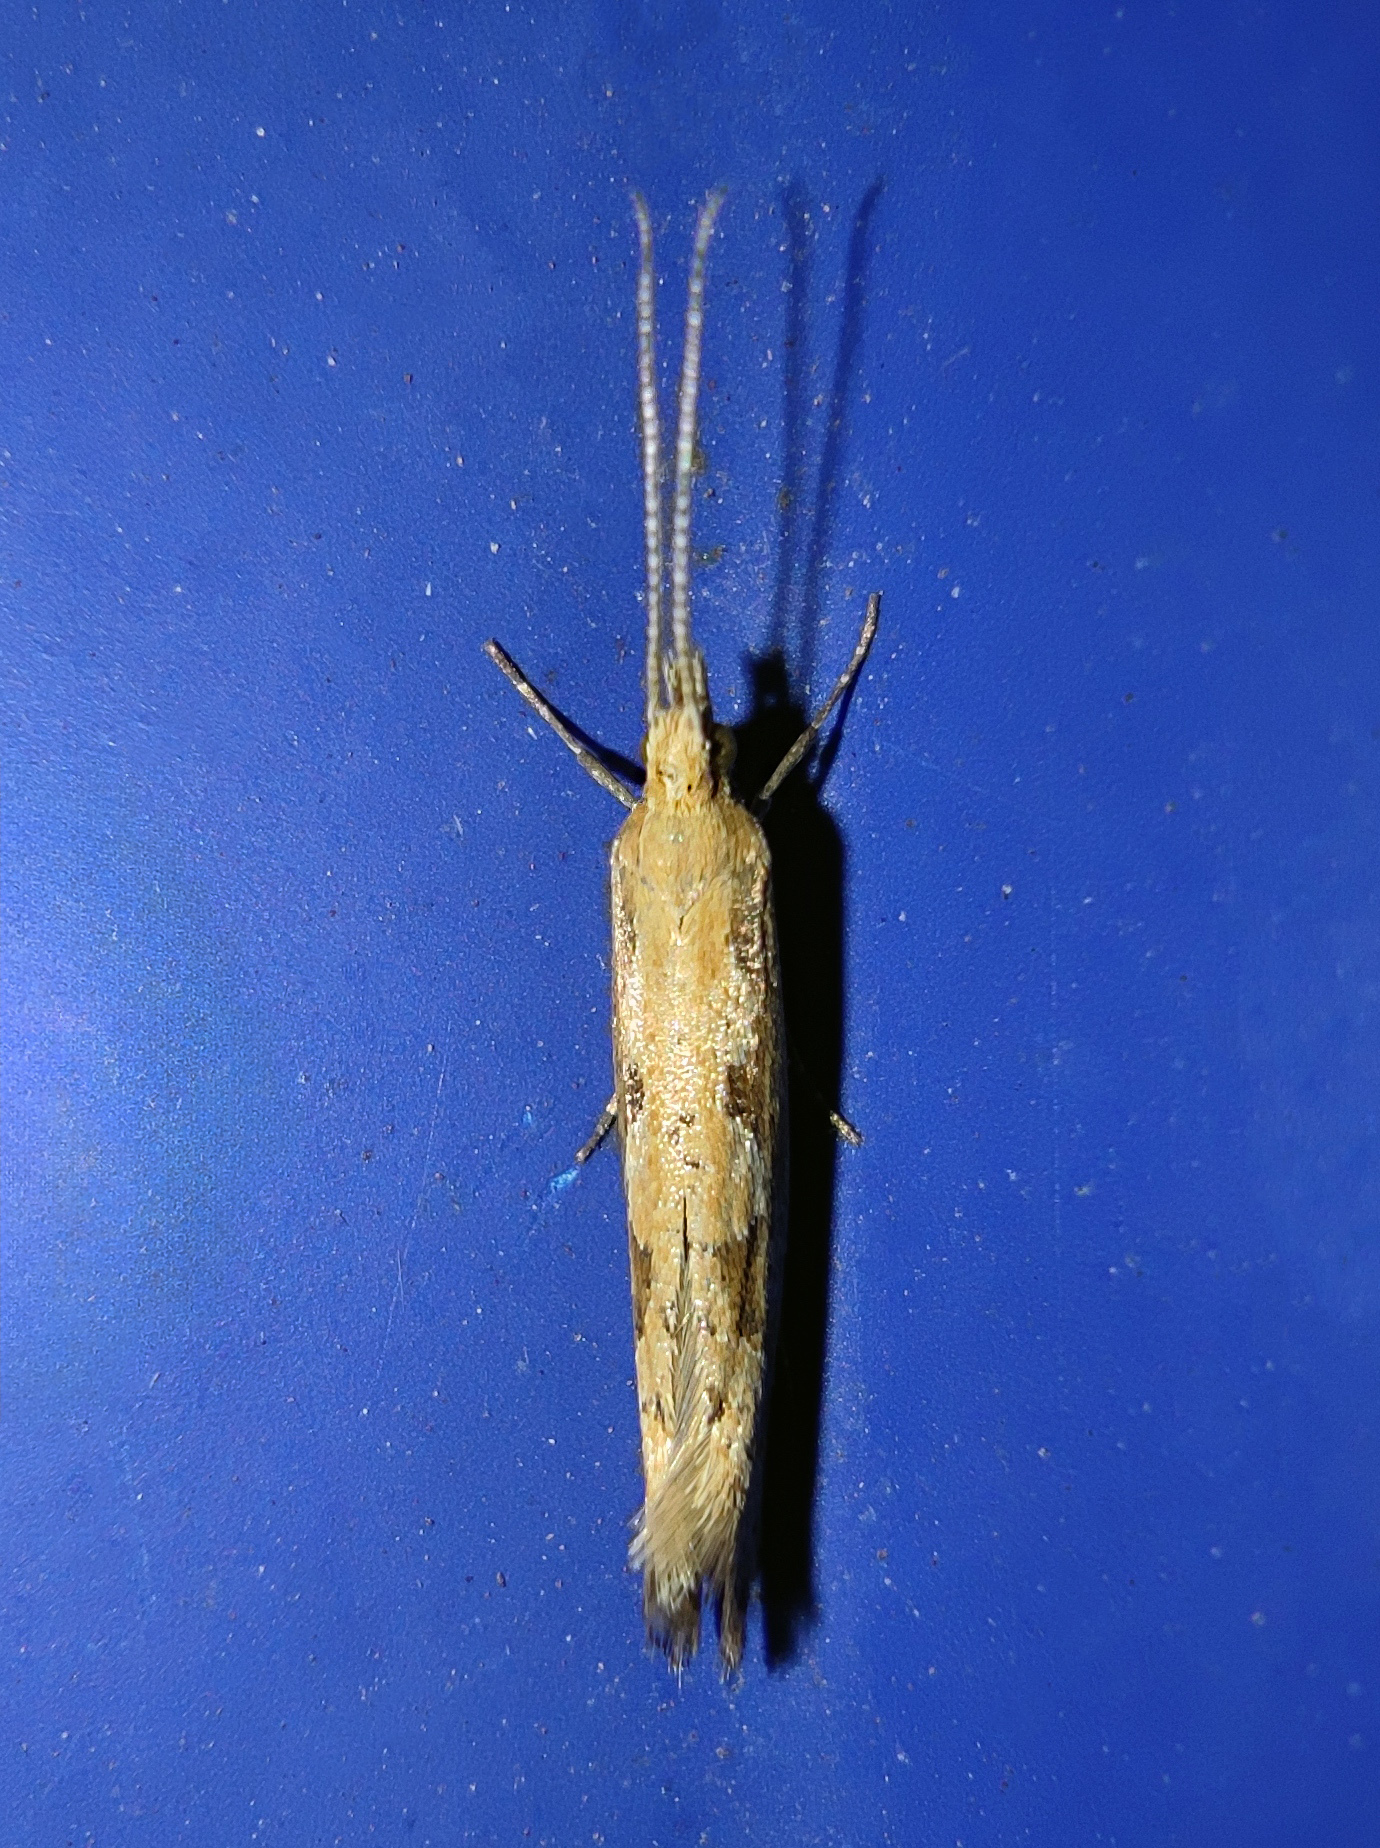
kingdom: Animalia
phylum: Arthropoda
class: Insecta
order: Lepidoptera
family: Plutellidae
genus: Plutella
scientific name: Plutella xylostella
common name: Diamond-back moth
